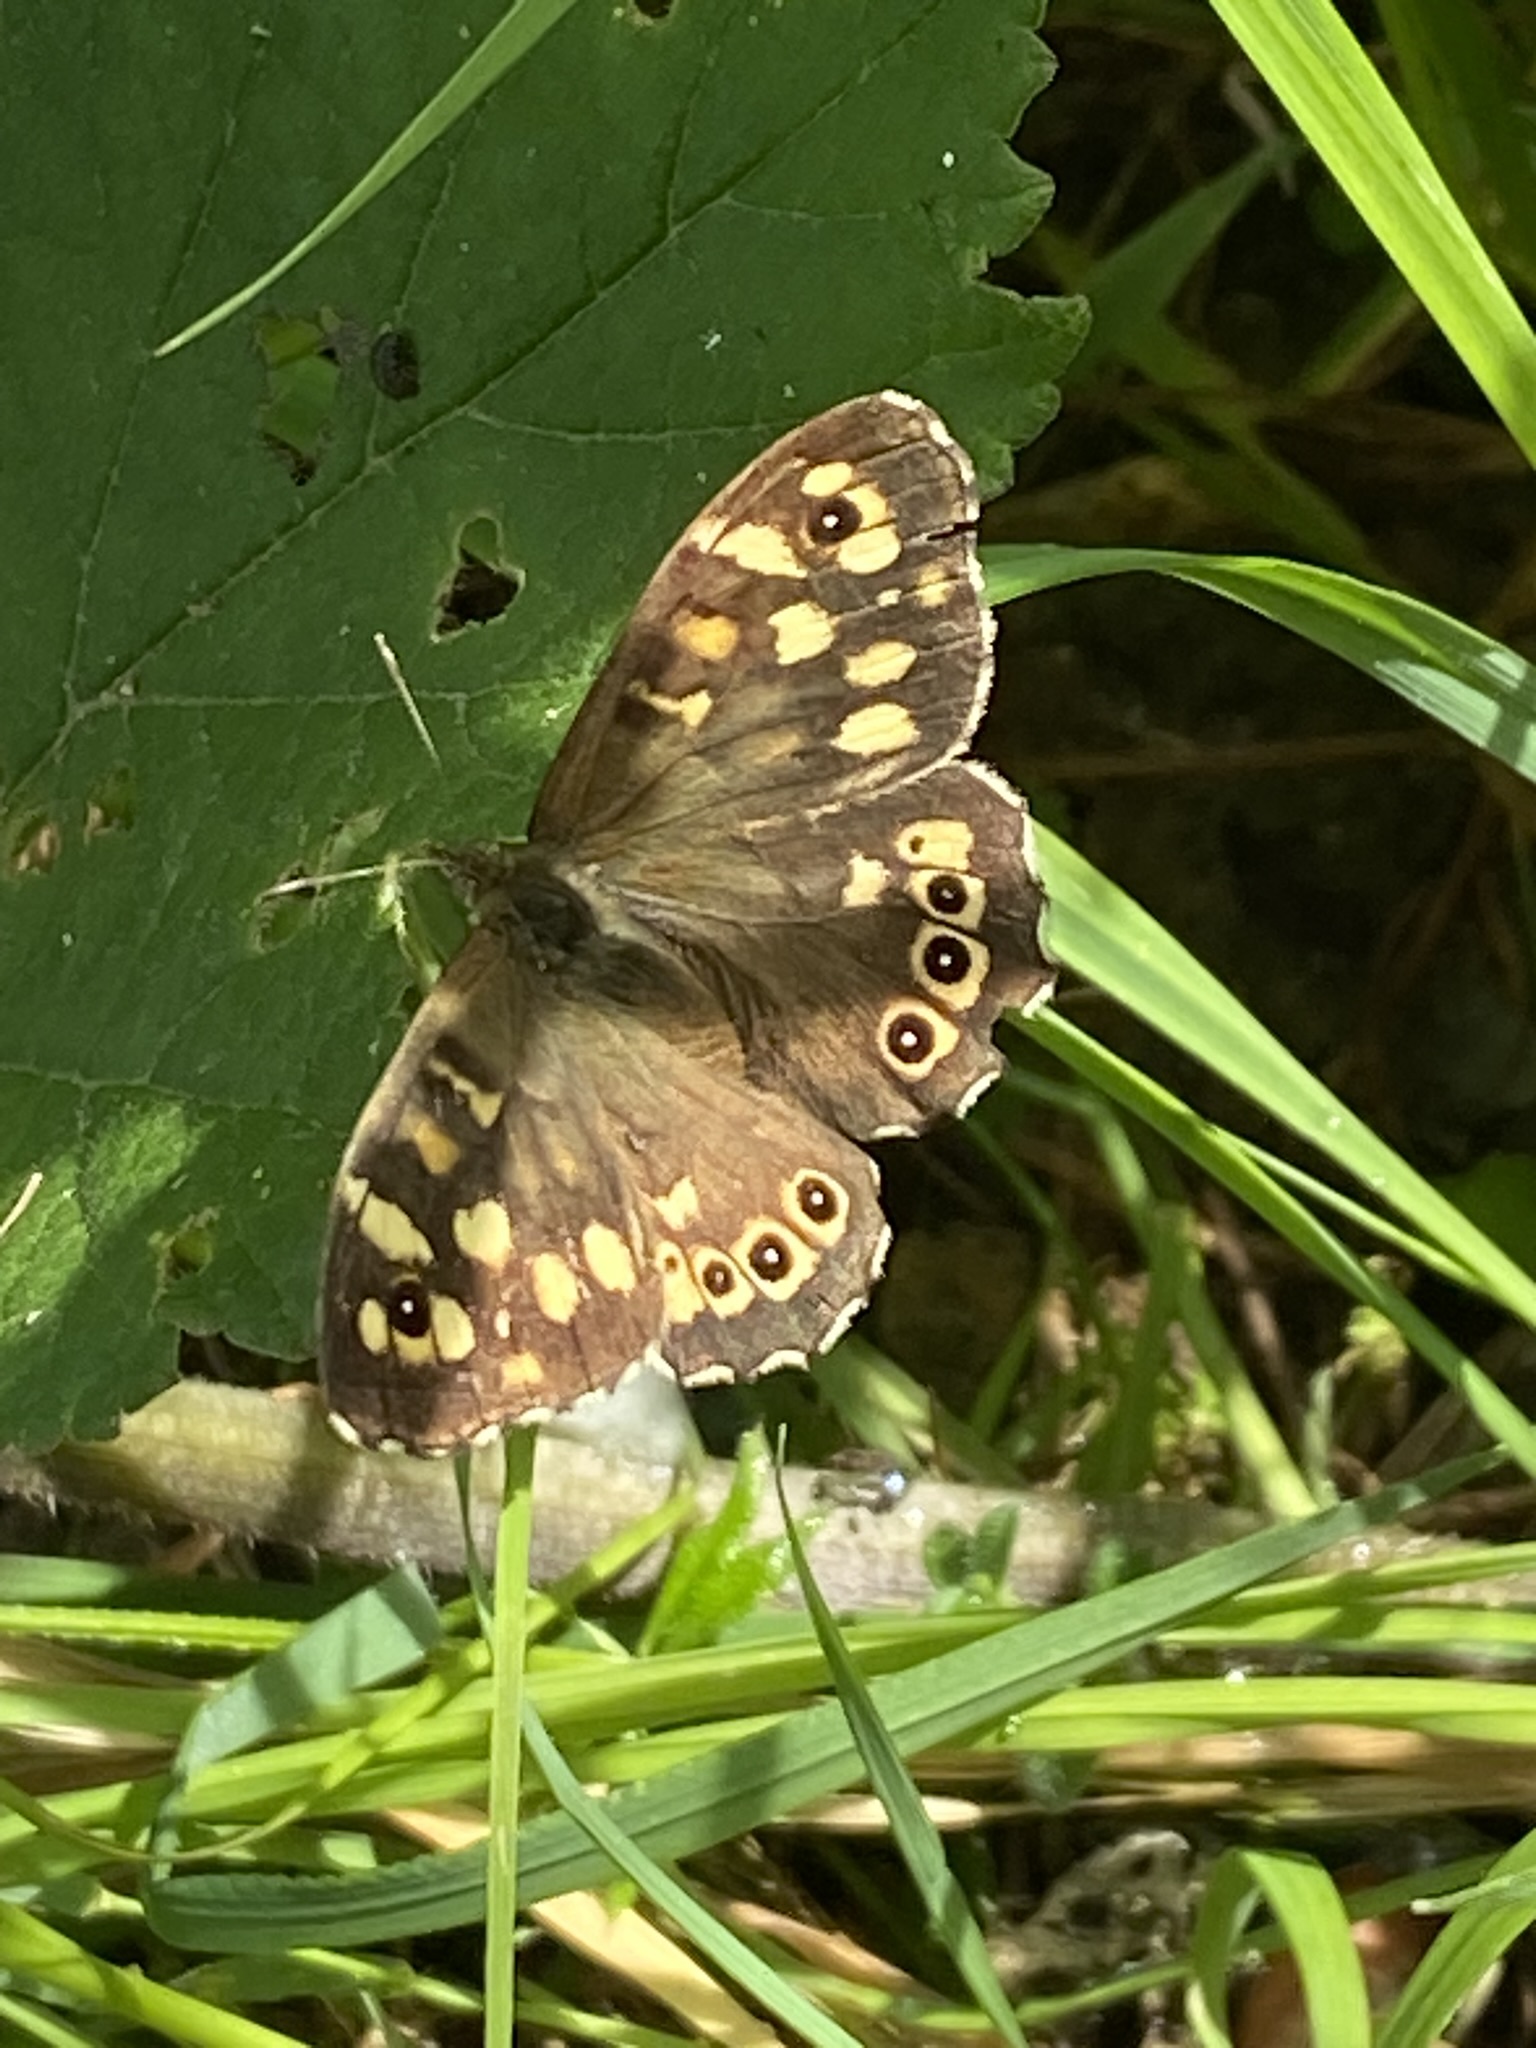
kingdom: Animalia
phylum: Arthropoda
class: Insecta
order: Lepidoptera
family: Nymphalidae
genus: Pararge
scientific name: Pararge aegeria
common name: Speckled wood
